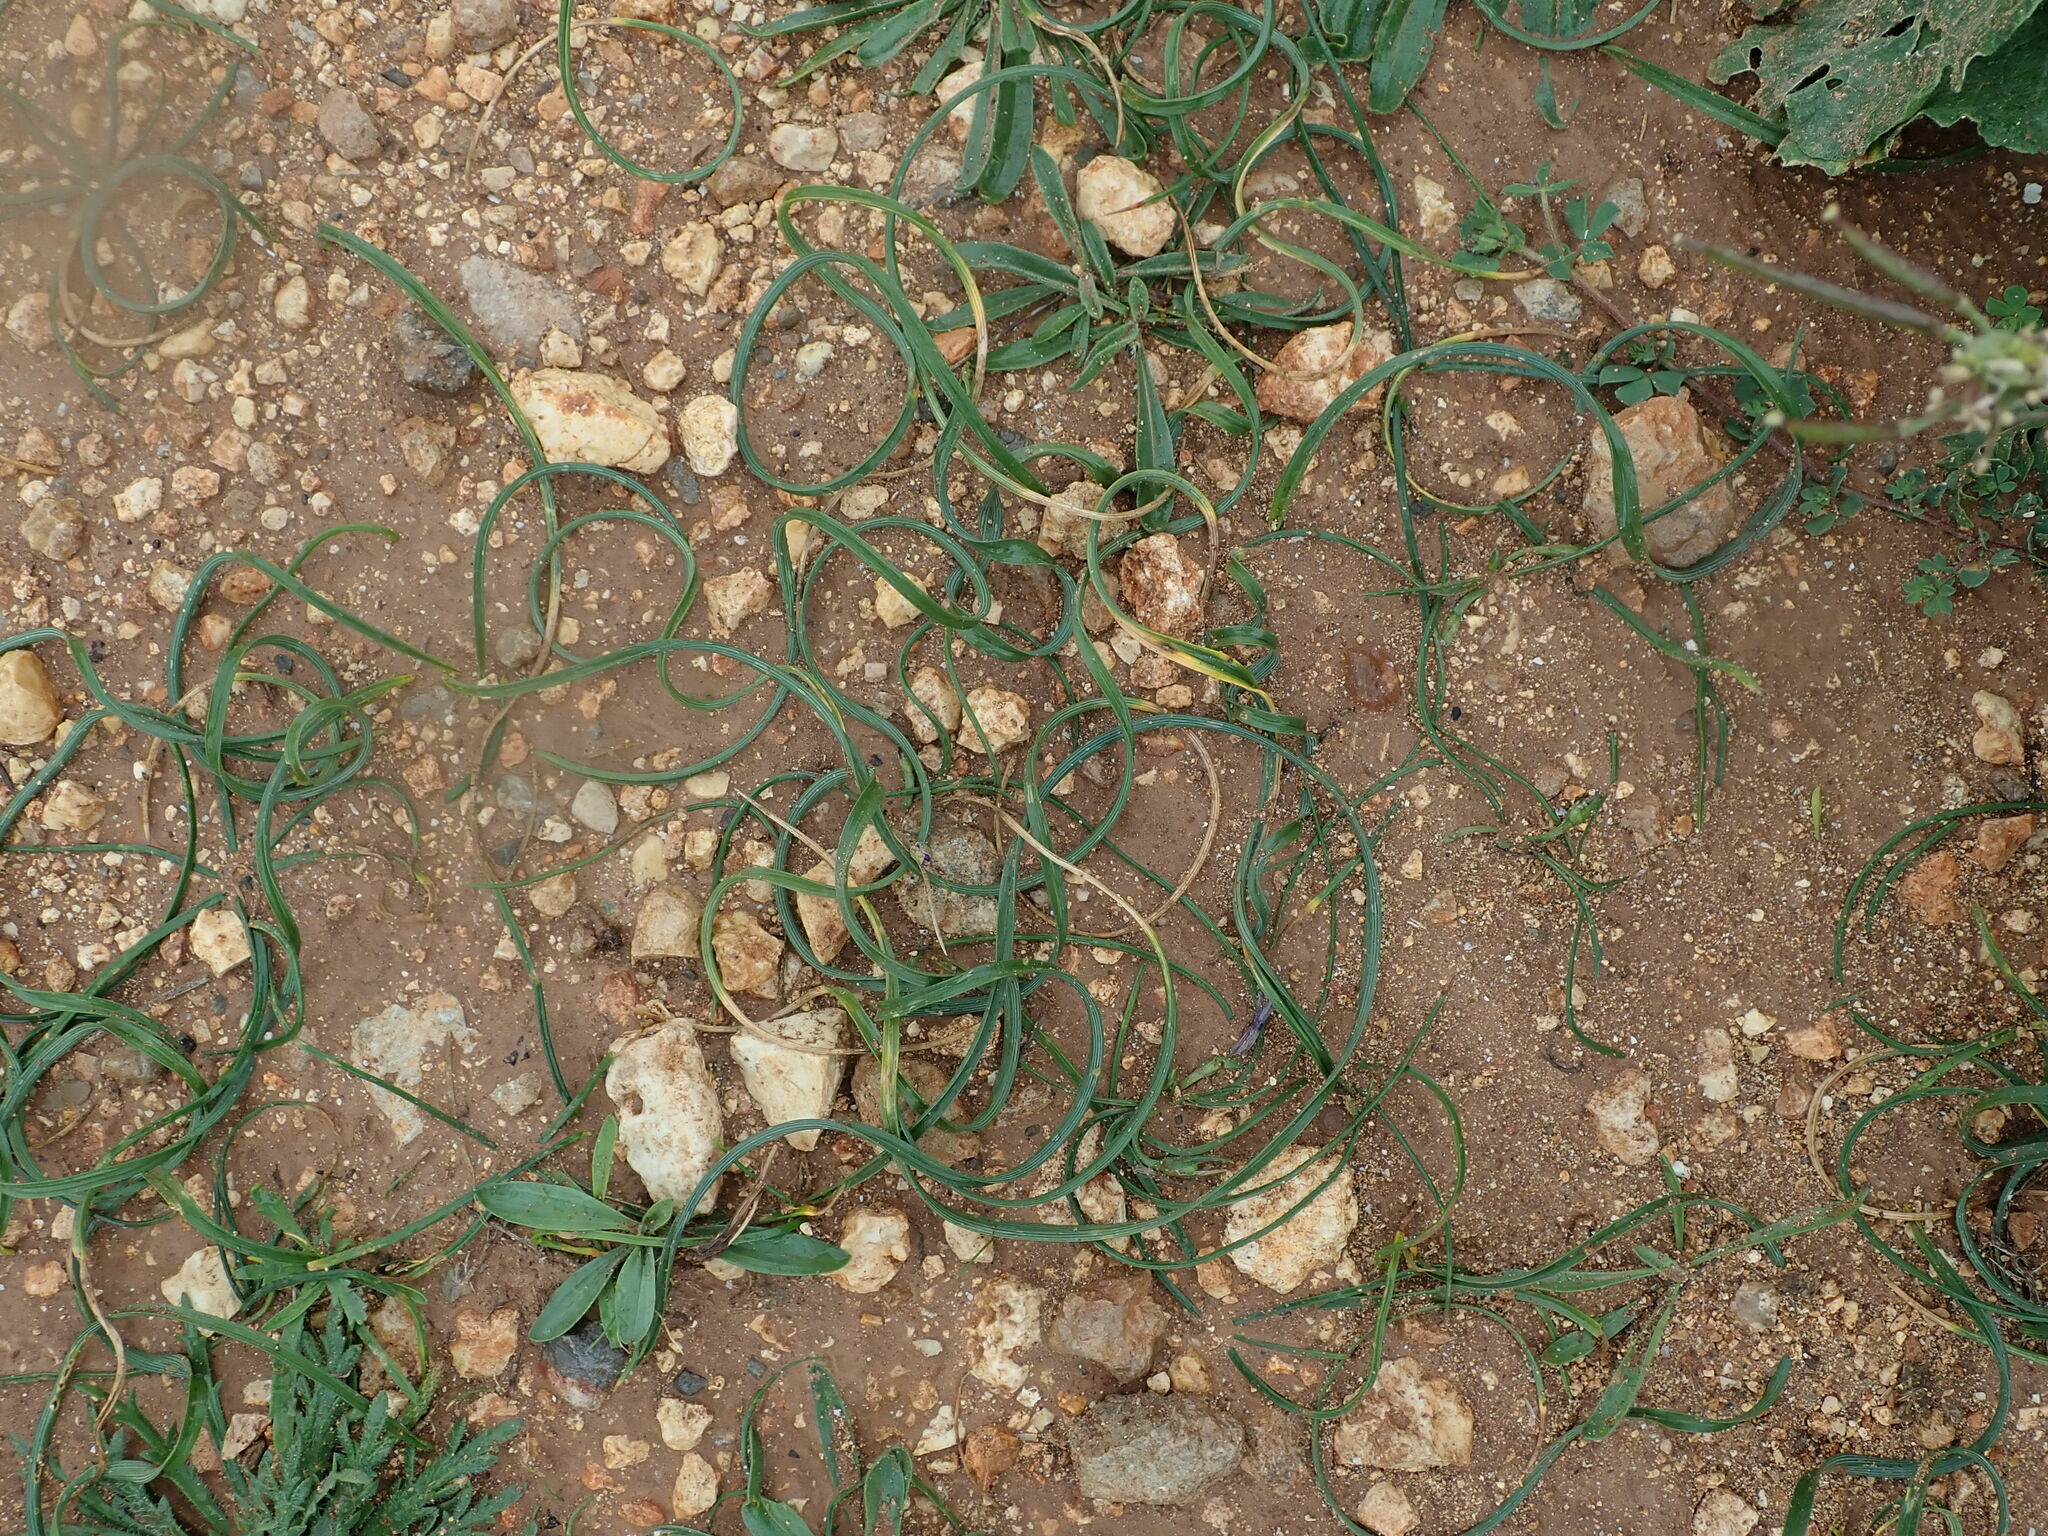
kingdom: Plantae
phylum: Tracheophyta
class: Liliopsida
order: Asparagales
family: Iridaceae
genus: Romulea
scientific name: Romulea variicolor
